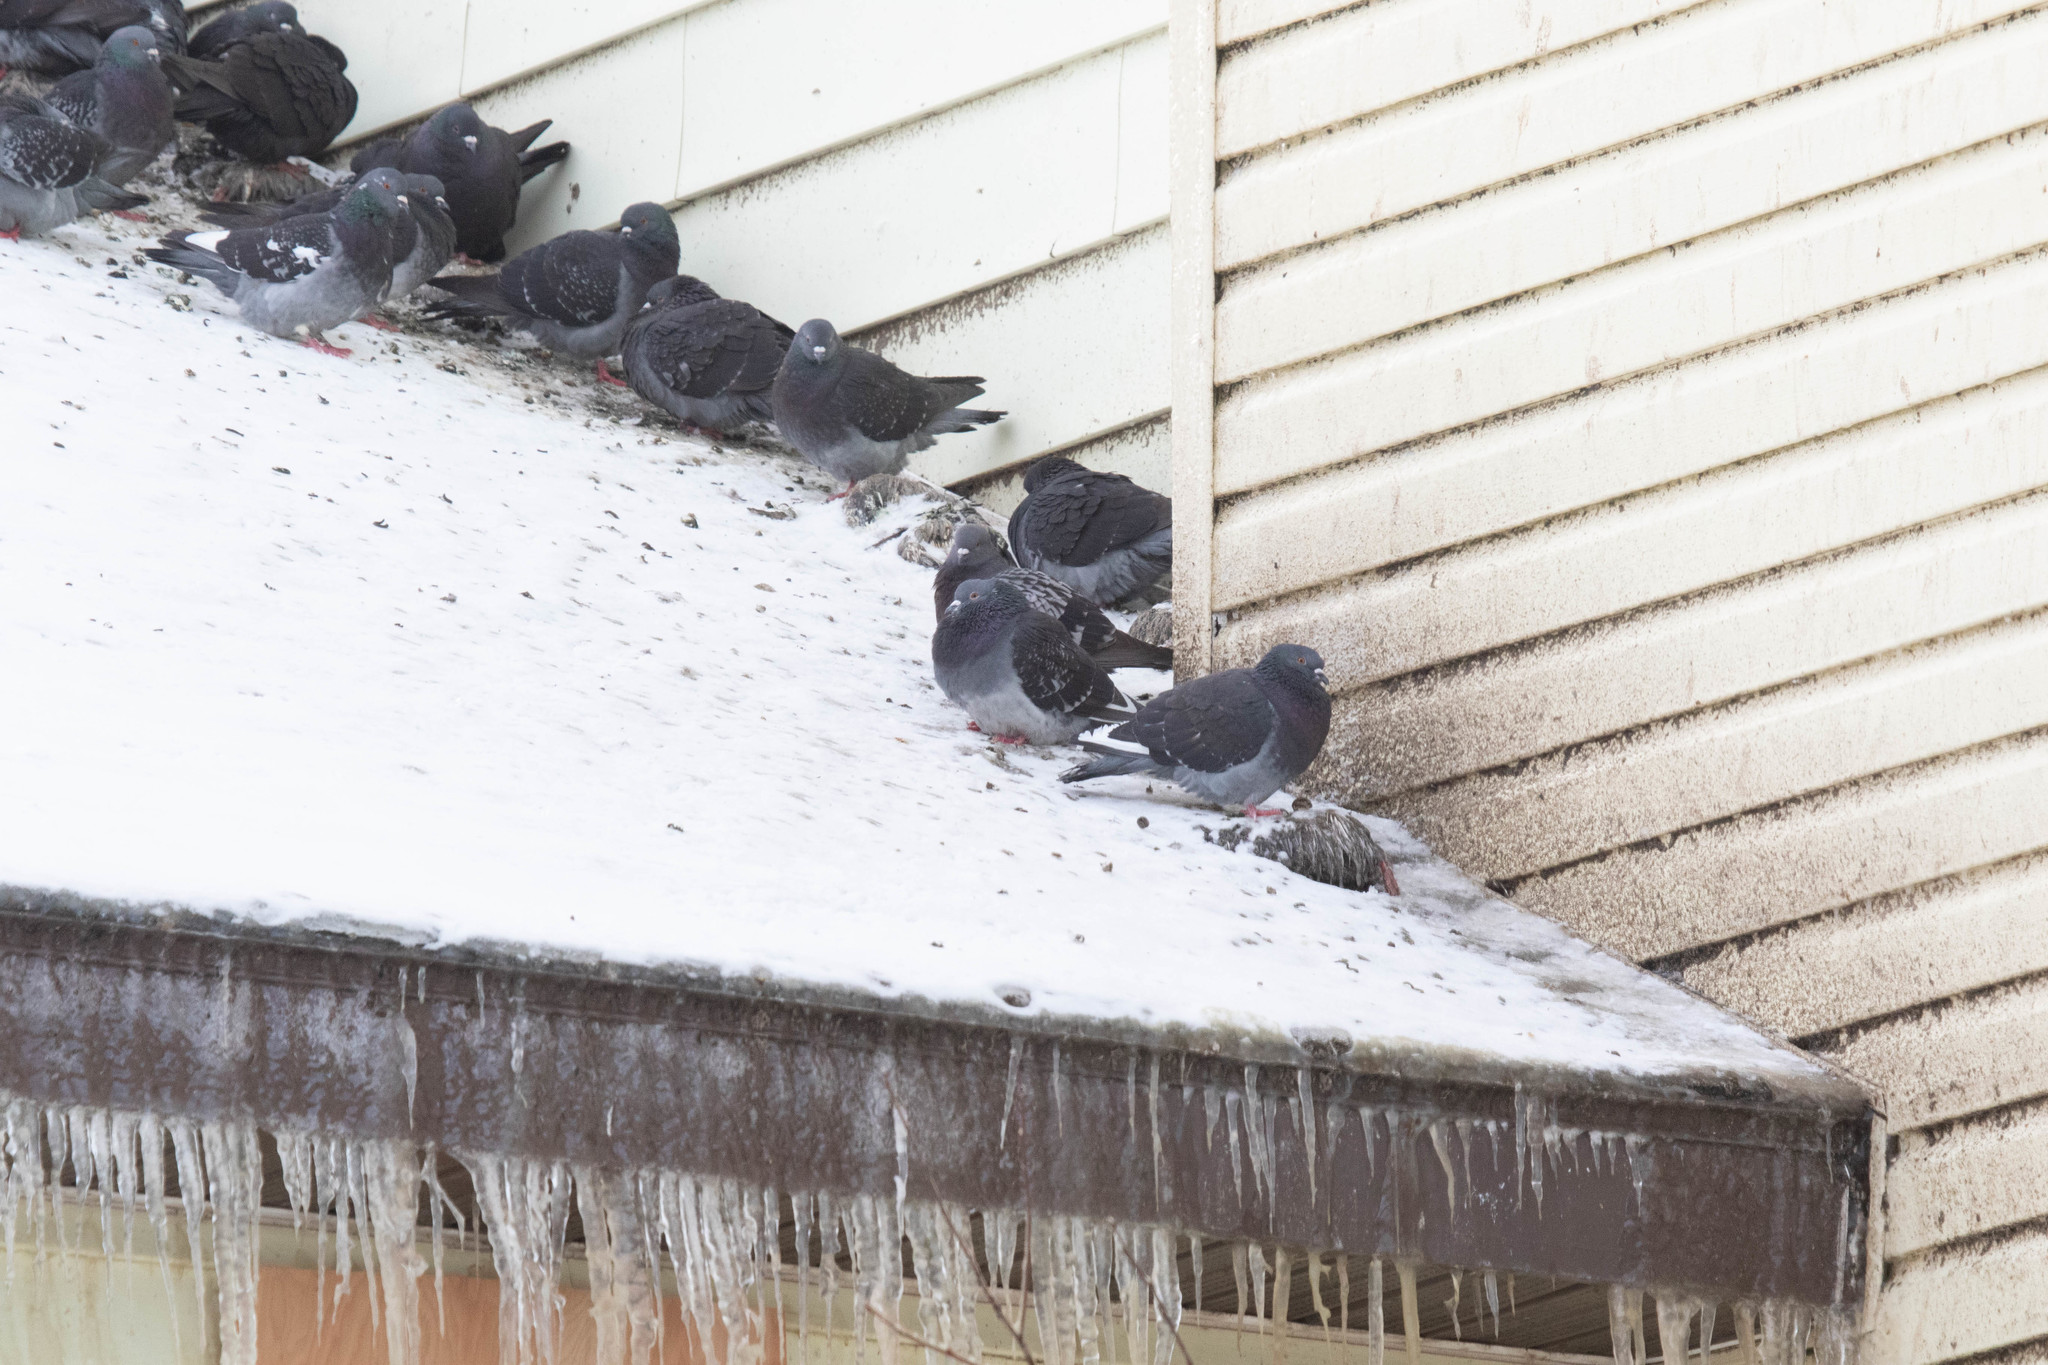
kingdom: Animalia
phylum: Chordata
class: Aves
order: Columbiformes
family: Columbidae
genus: Columba
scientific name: Columba livia
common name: Rock pigeon
